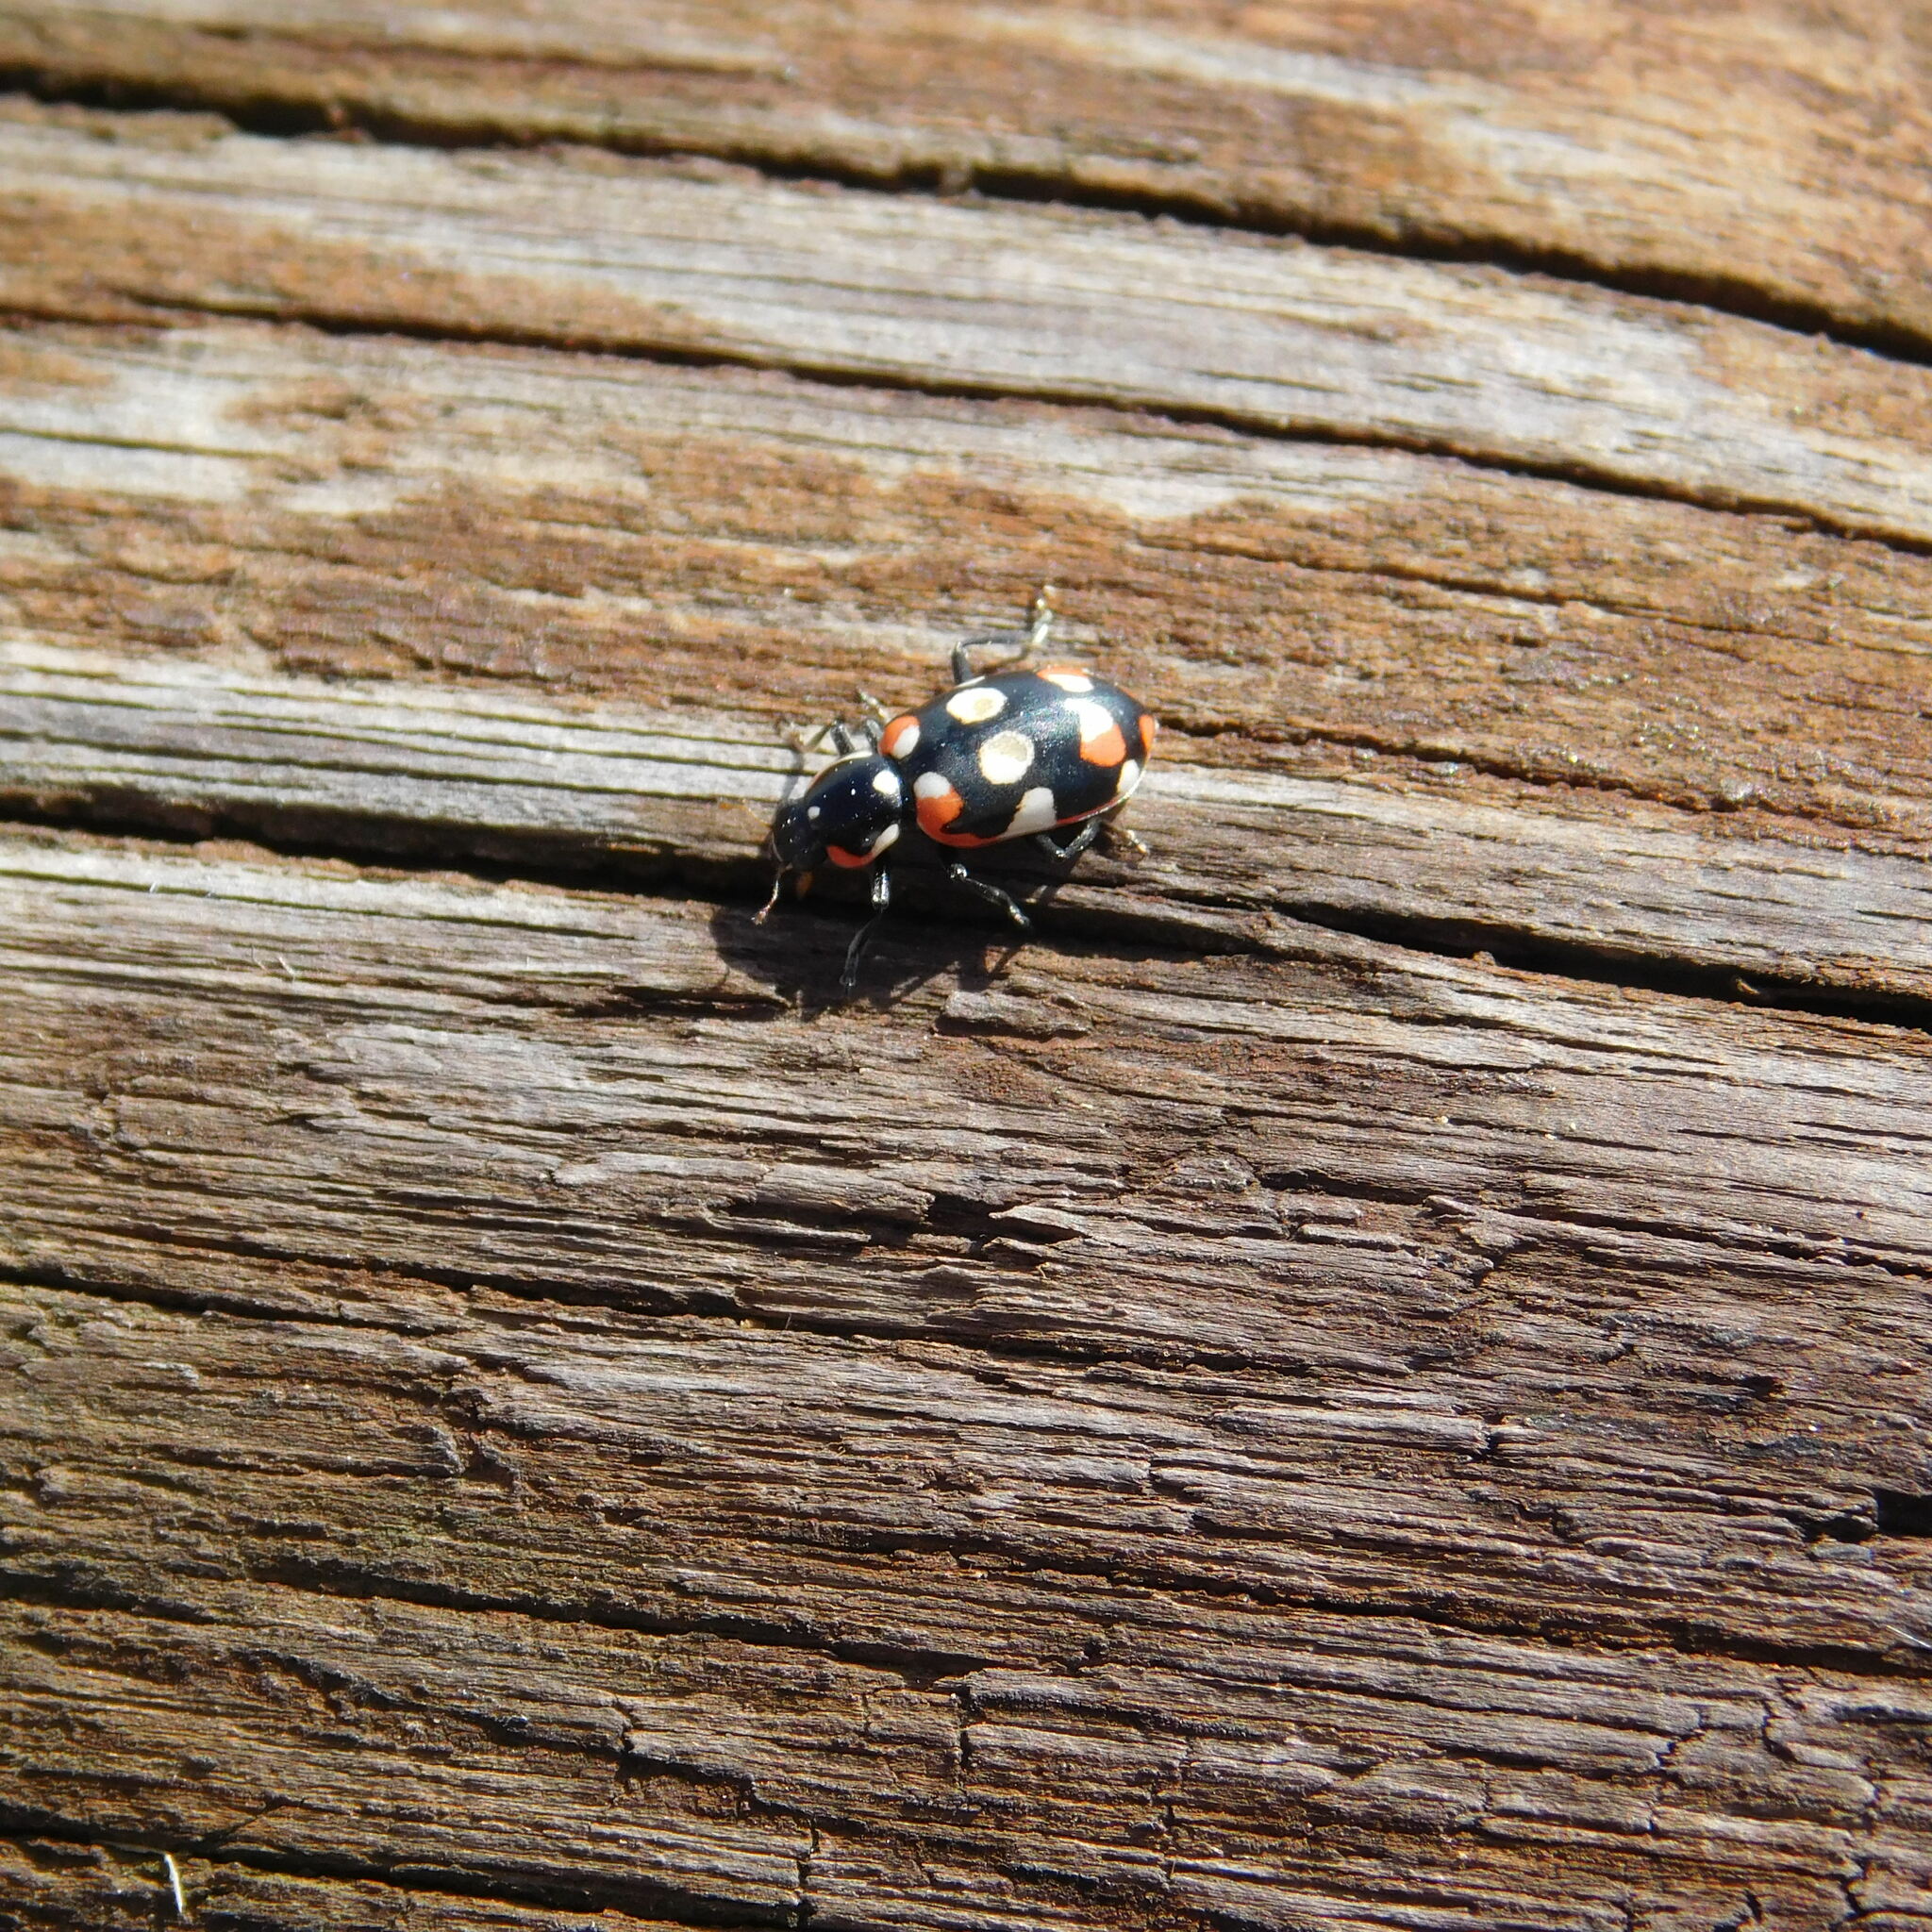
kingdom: Animalia
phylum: Arthropoda
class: Insecta
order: Coleoptera
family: Coccinellidae
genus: Eriopis
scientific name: Eriopis connexa
